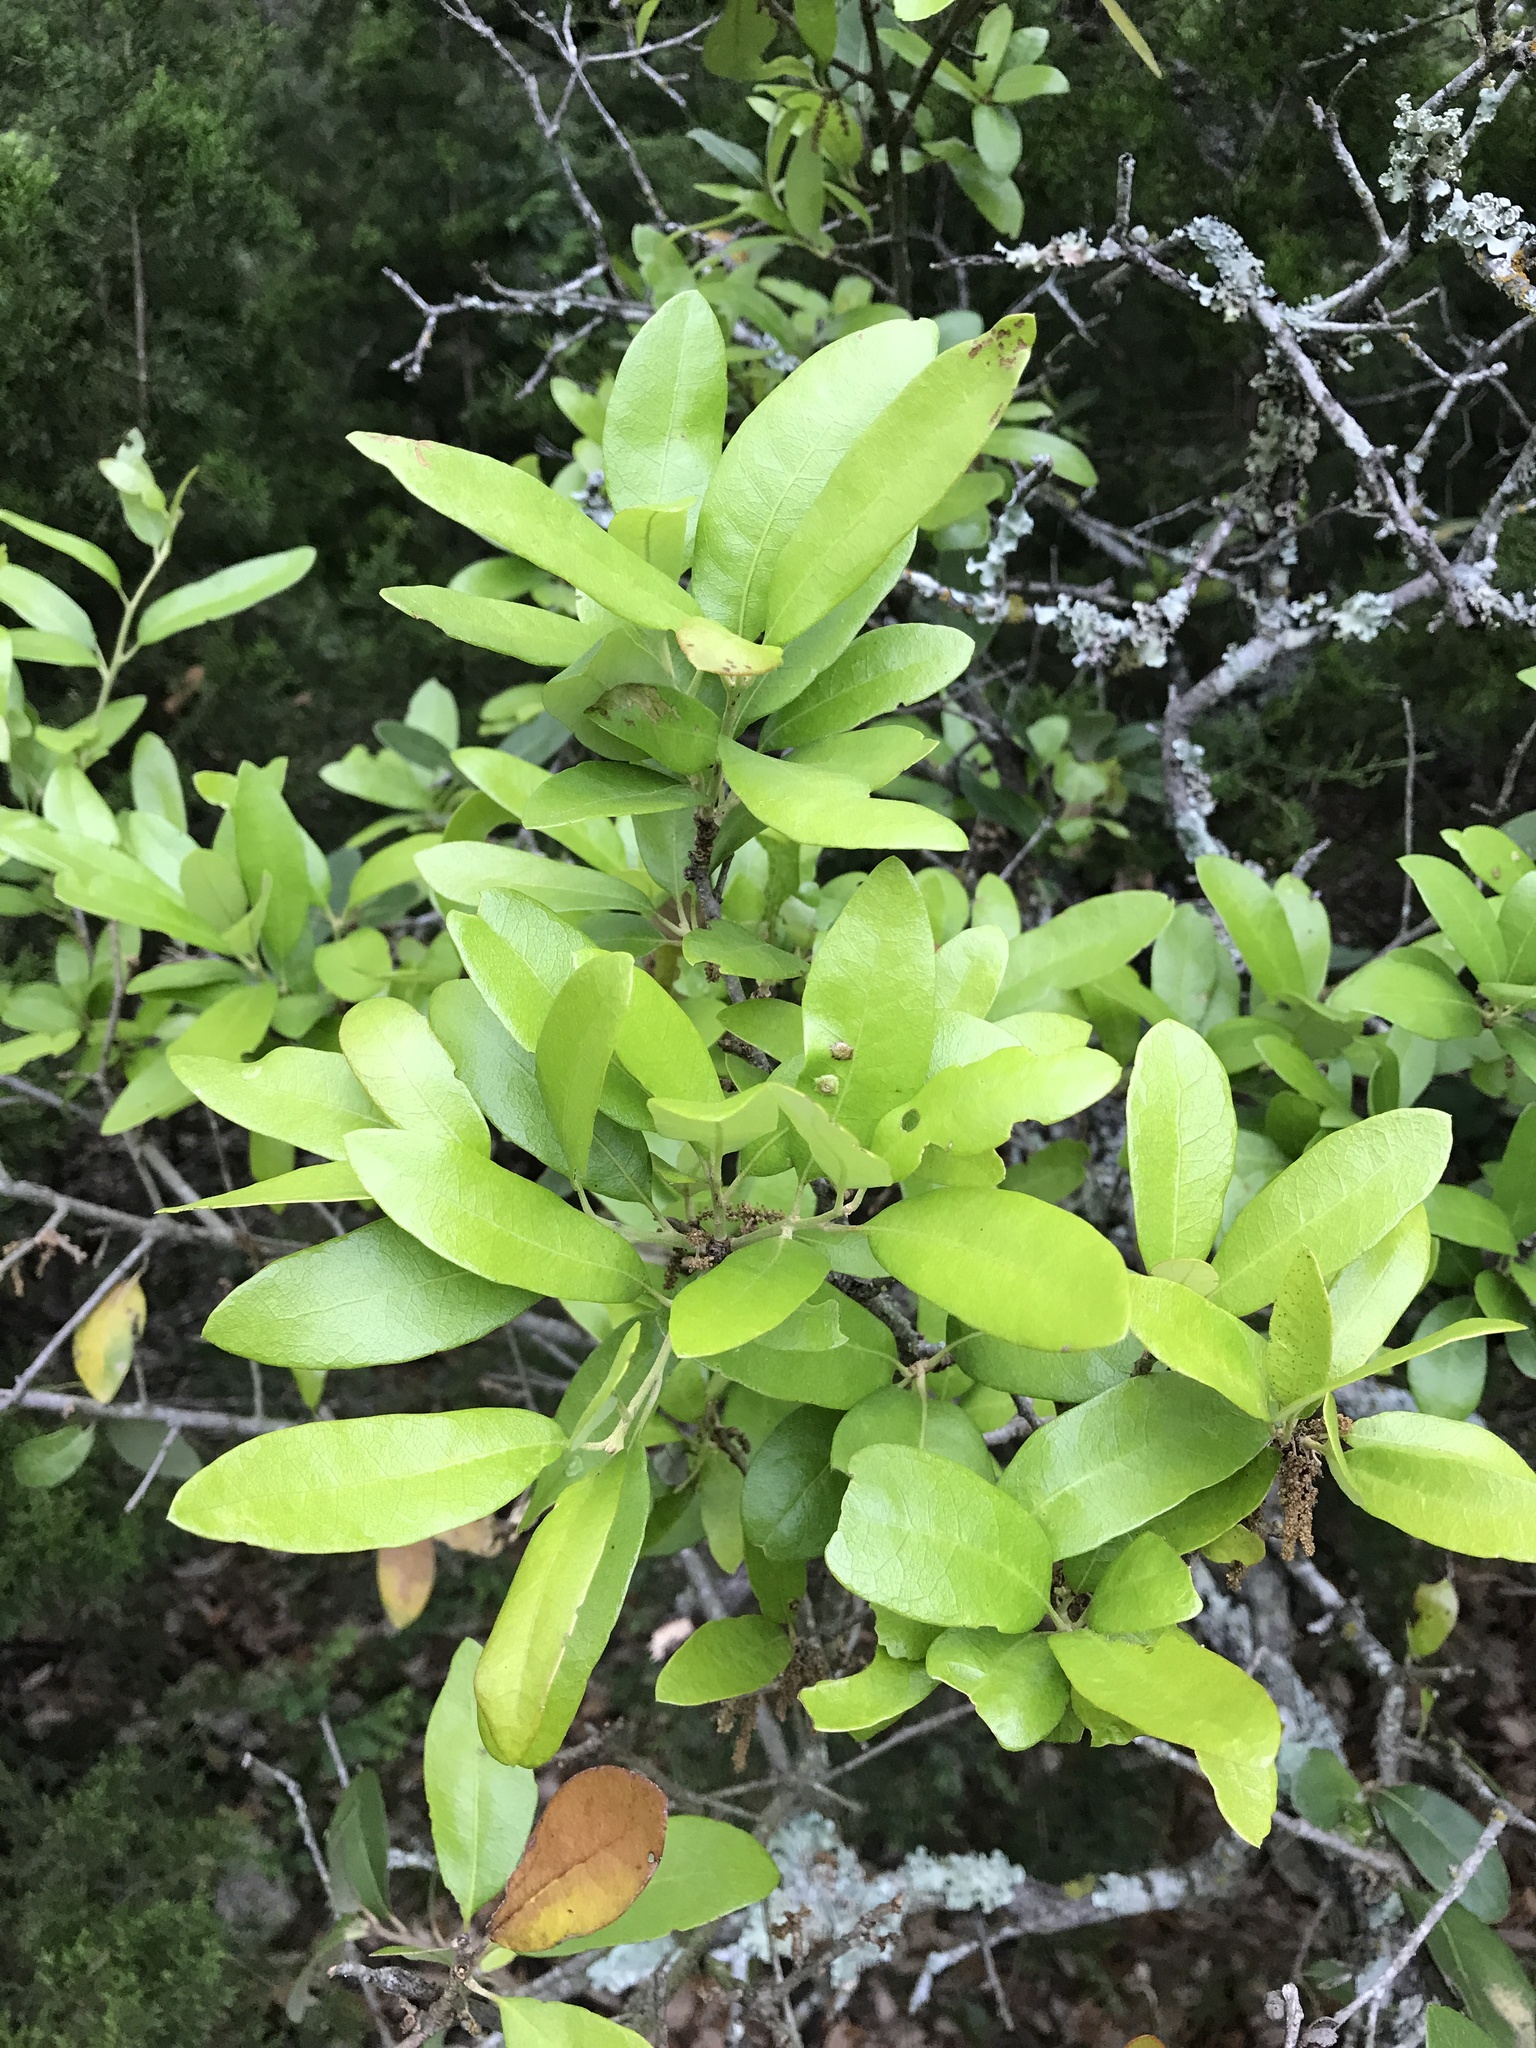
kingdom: Plantae
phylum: Tracheophyta
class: Magnoliopsida
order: Fagales
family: Fagaceae
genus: Quercus
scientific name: Quercus fusiformis
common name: Texas live oak
